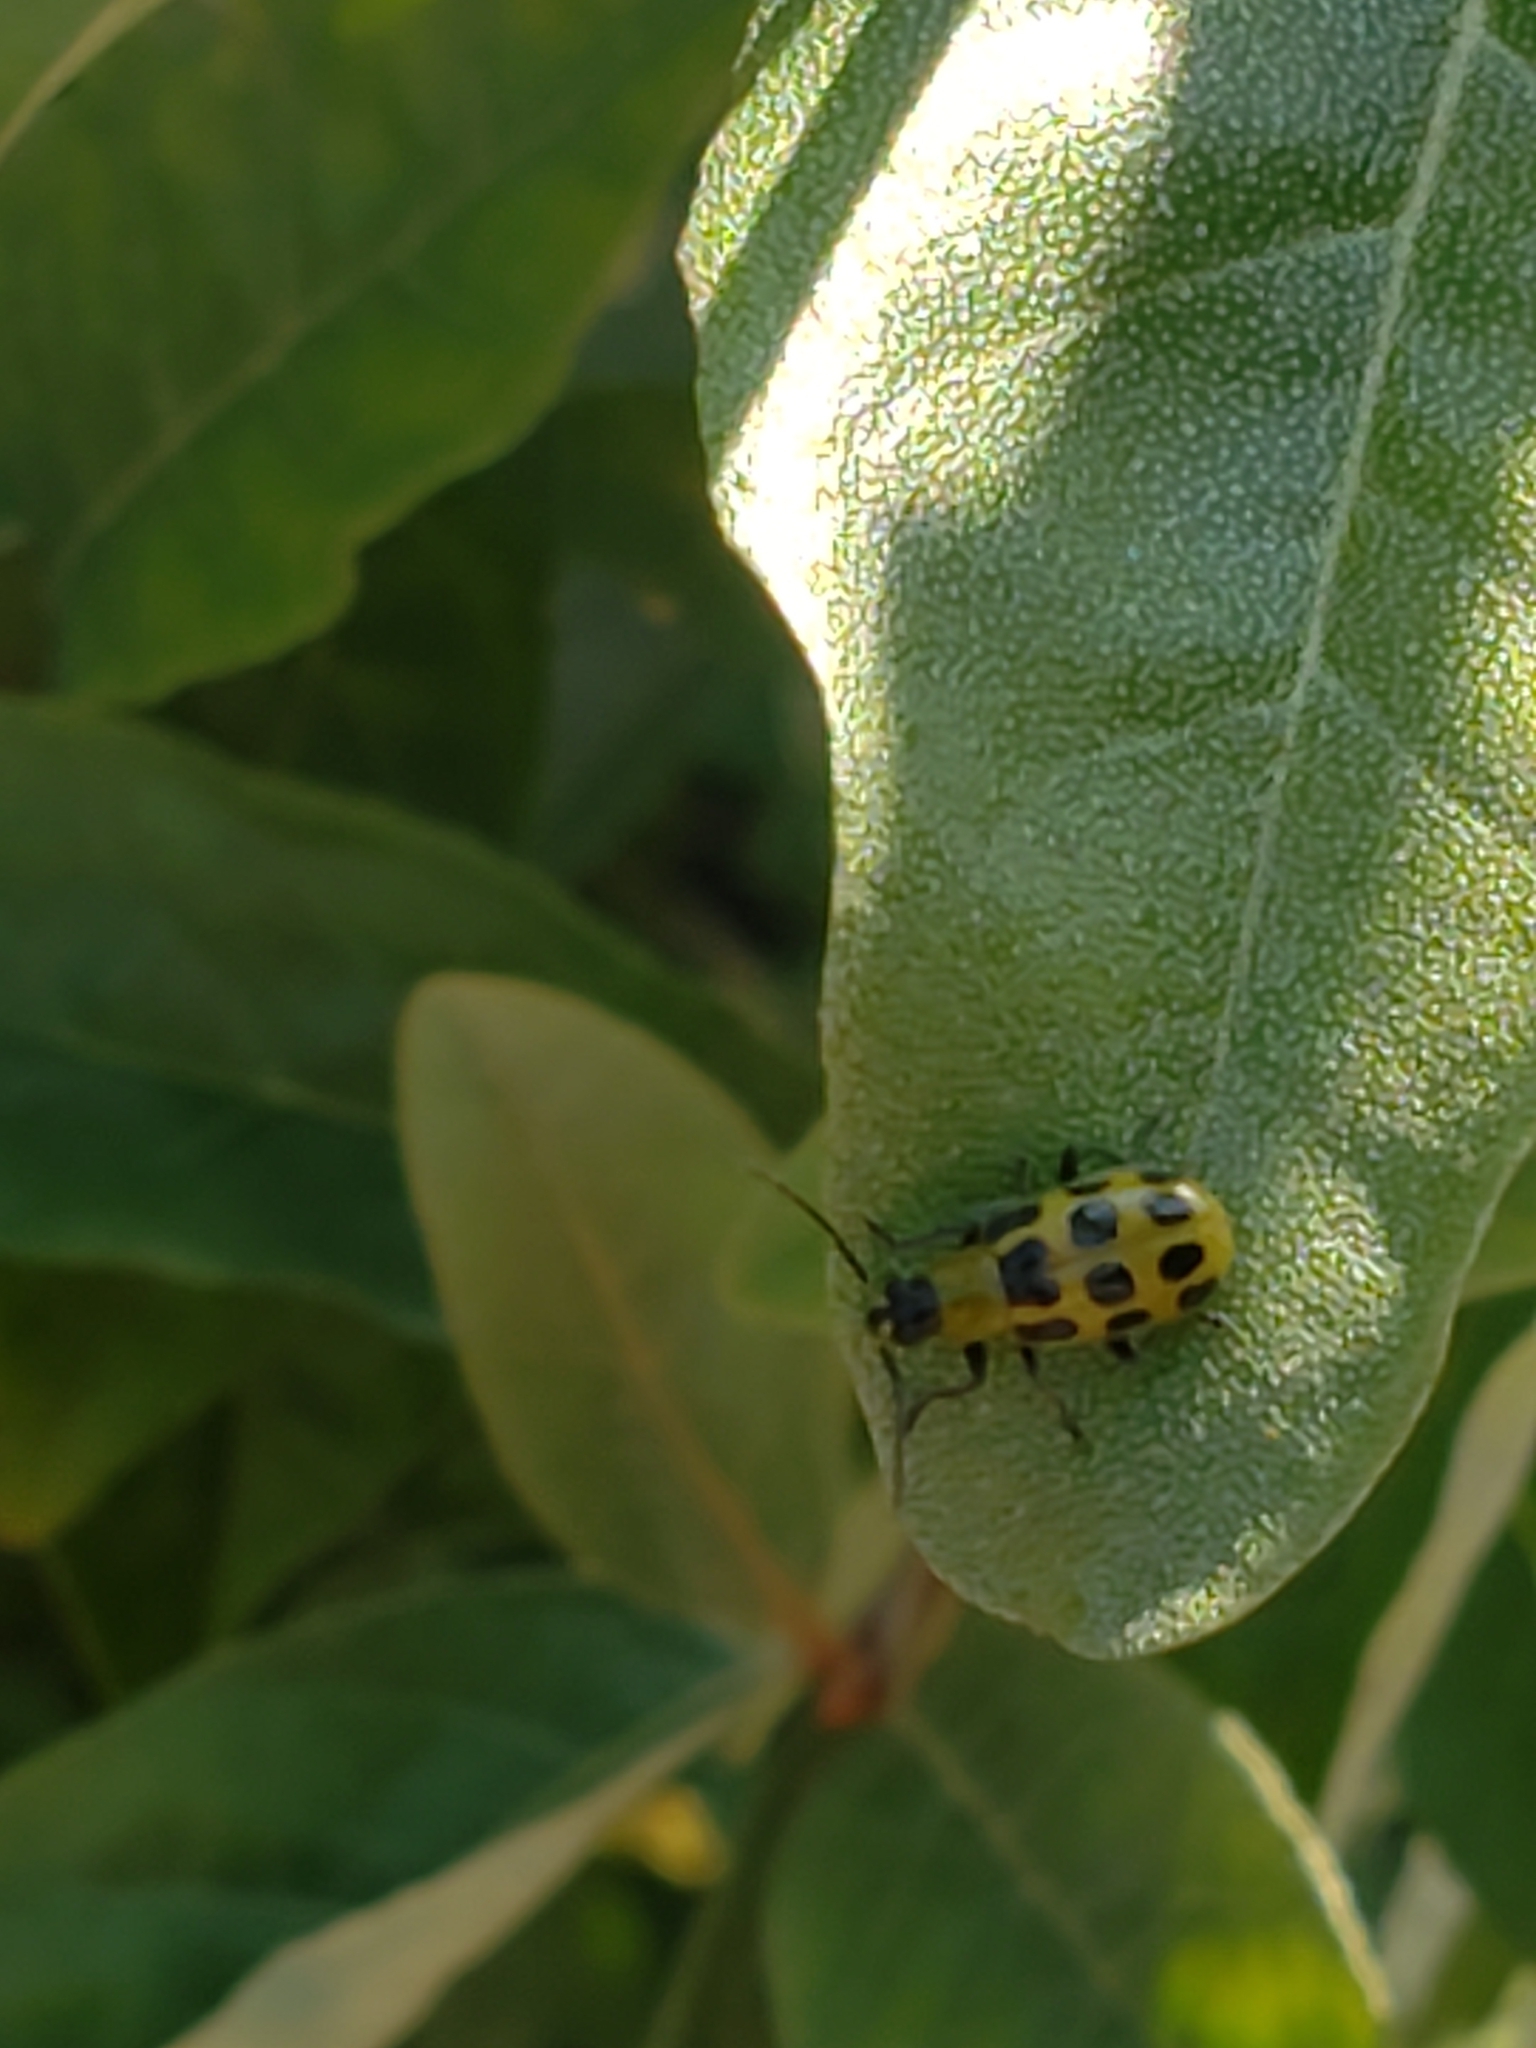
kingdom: Animalia
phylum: Arthropoda
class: Insecta
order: Coleoptera
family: Chrysomelidae
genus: Diabrotica
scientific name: Diabrotica undecimpunctata
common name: Spotted cucumber beetle
